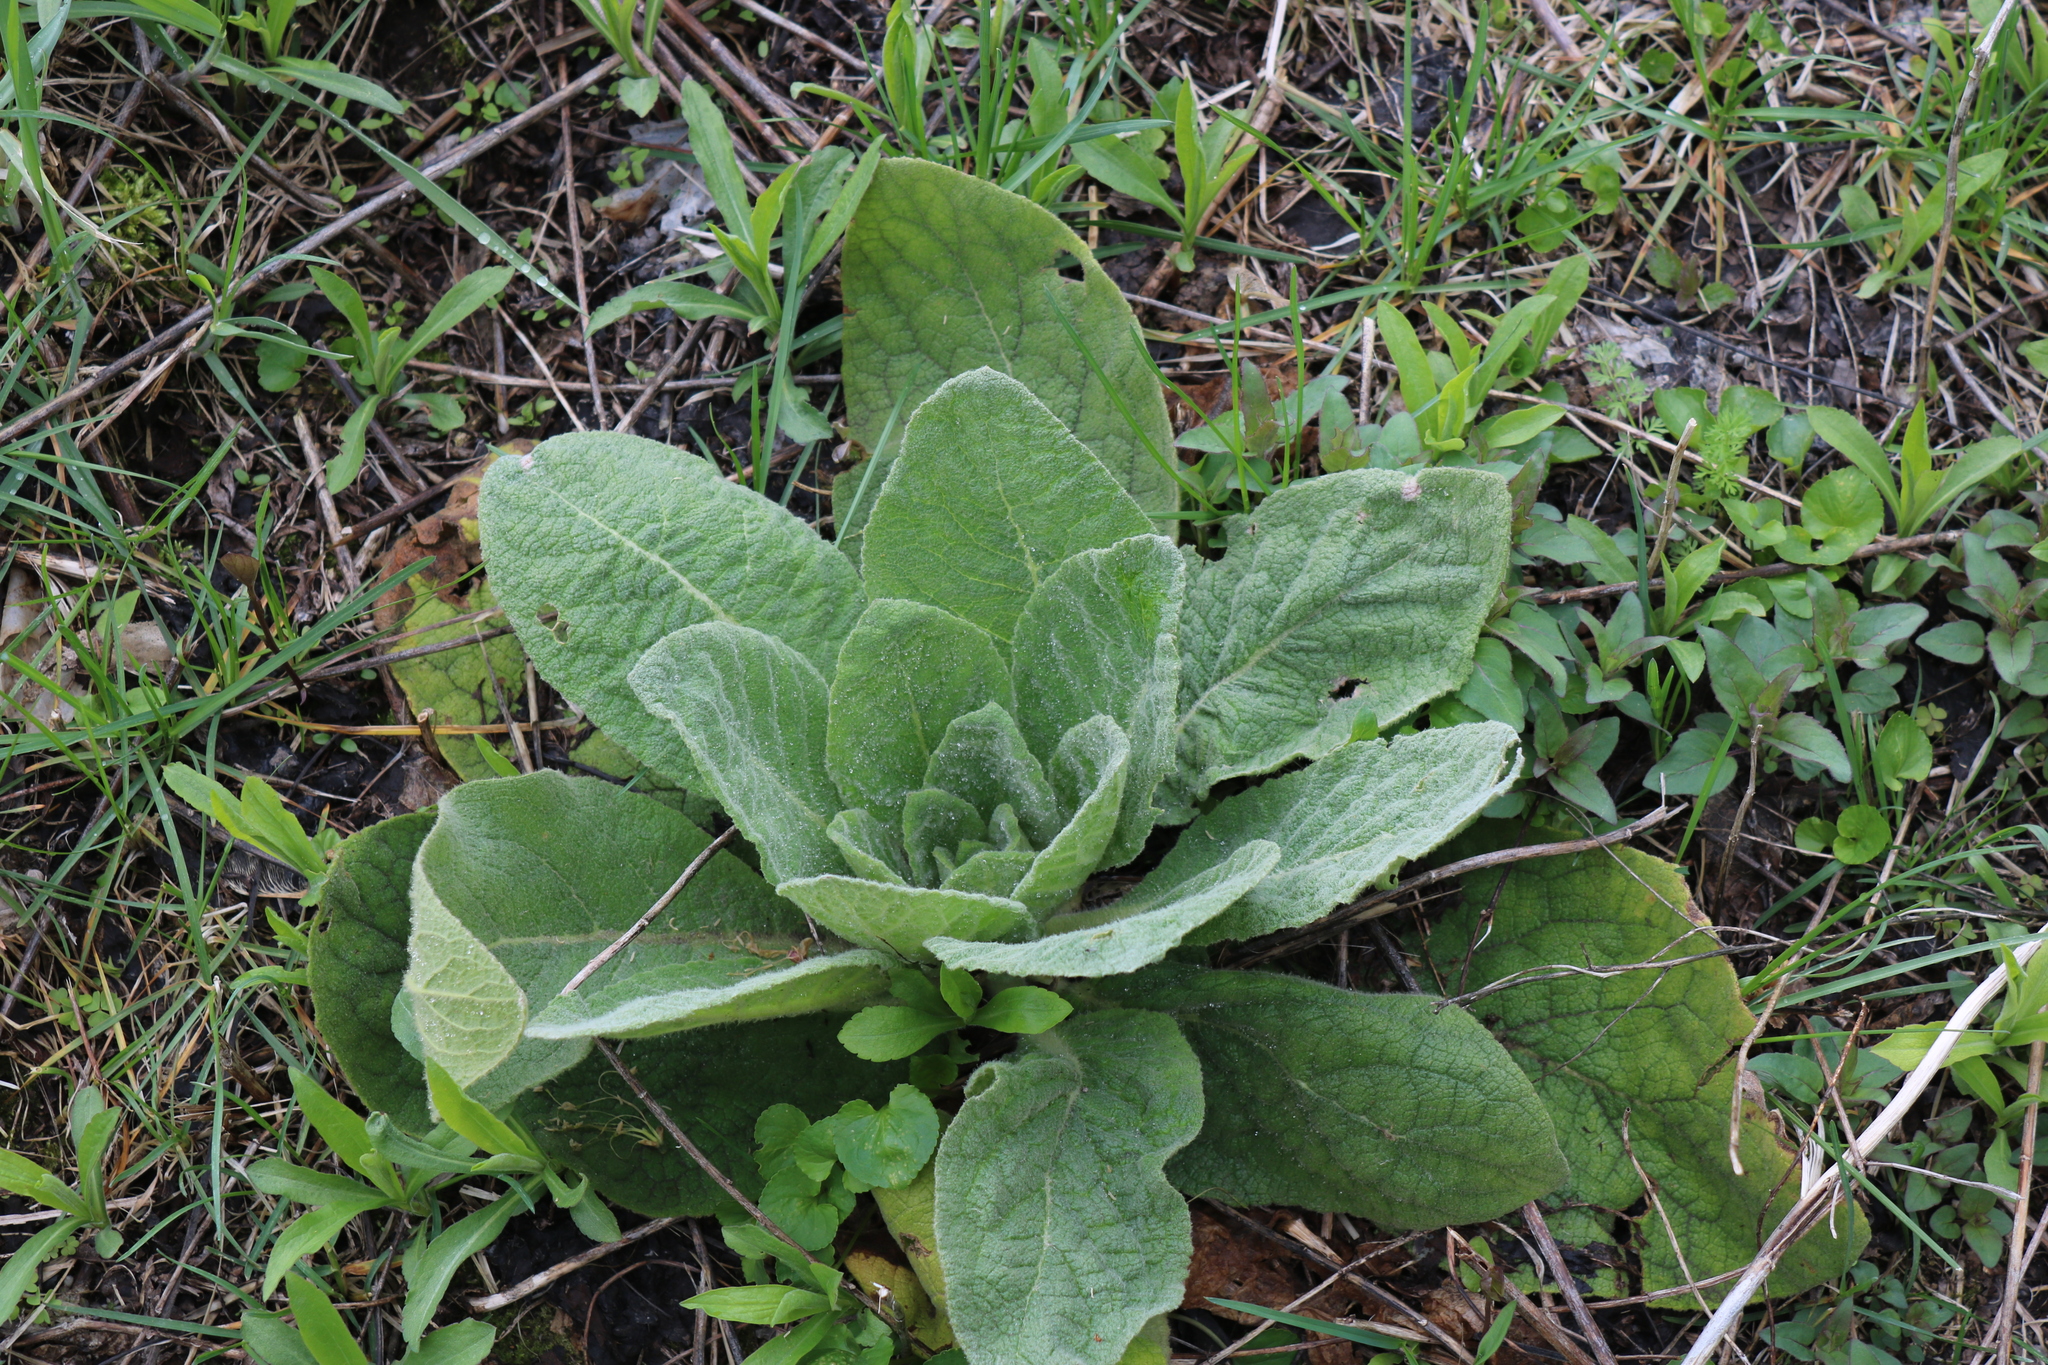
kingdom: Plantae
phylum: Tracheophyta
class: Magnoliopsida
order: Lamiales
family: Scrophulariaceae
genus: Verbascum
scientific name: Verbascum thapsus
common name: Common mullein
